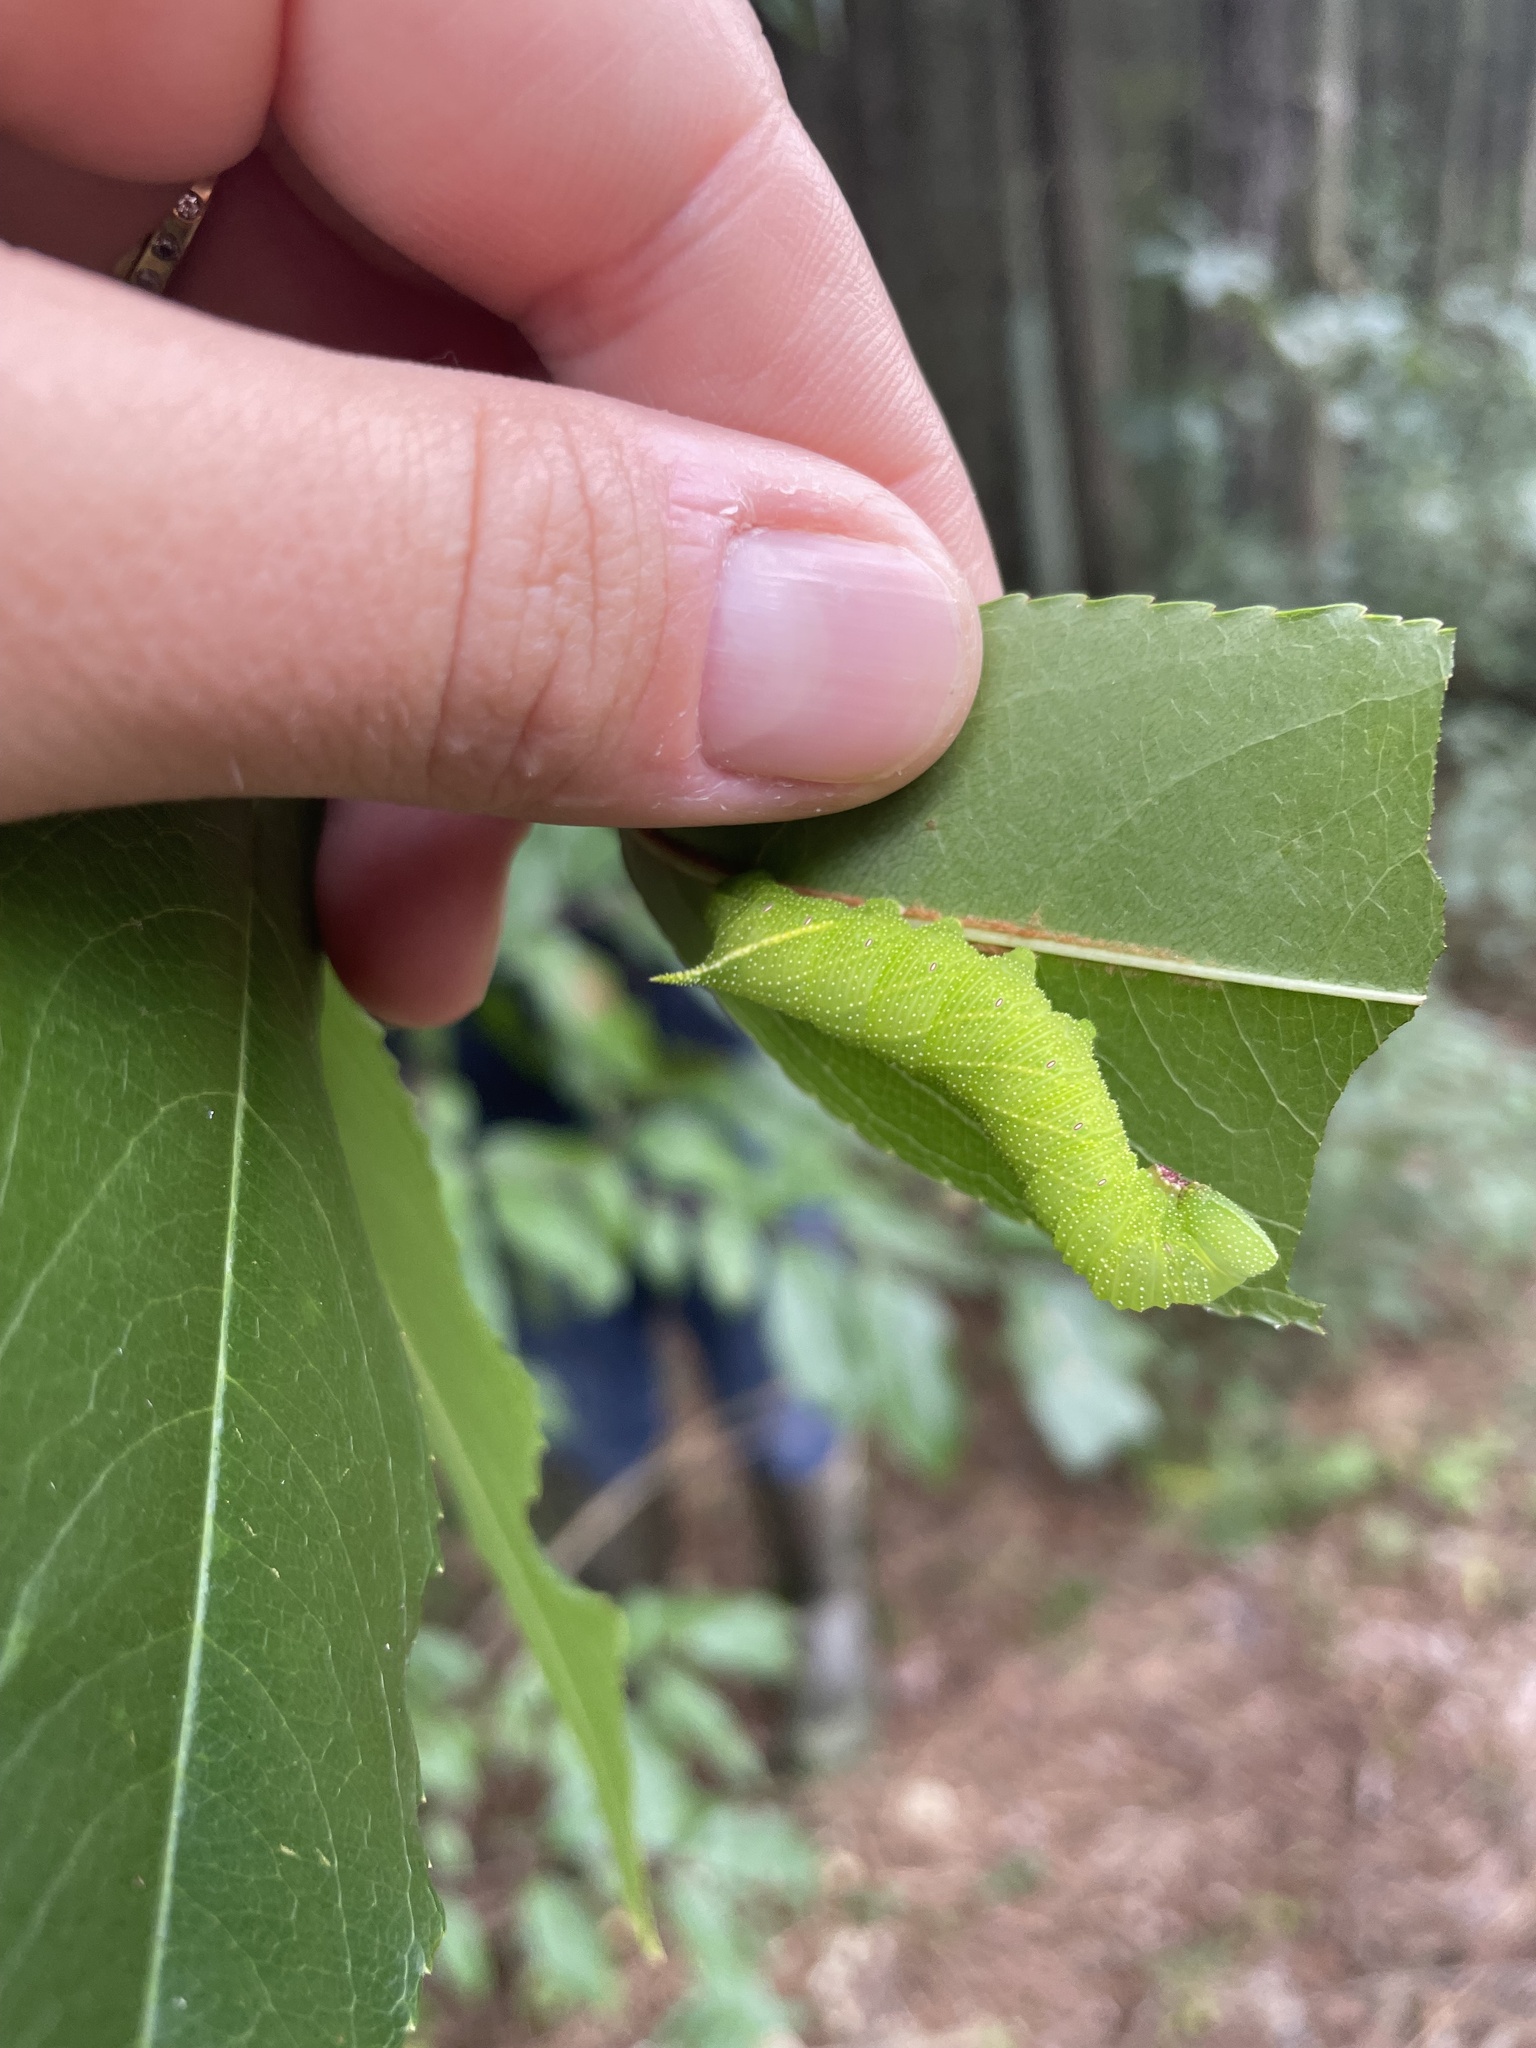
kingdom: Animalia
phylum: Arthropoda
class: Insecta
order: Lepidoptera
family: Sphingidae
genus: Paonias
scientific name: Paonias myops
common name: Small-eyed sphinx
